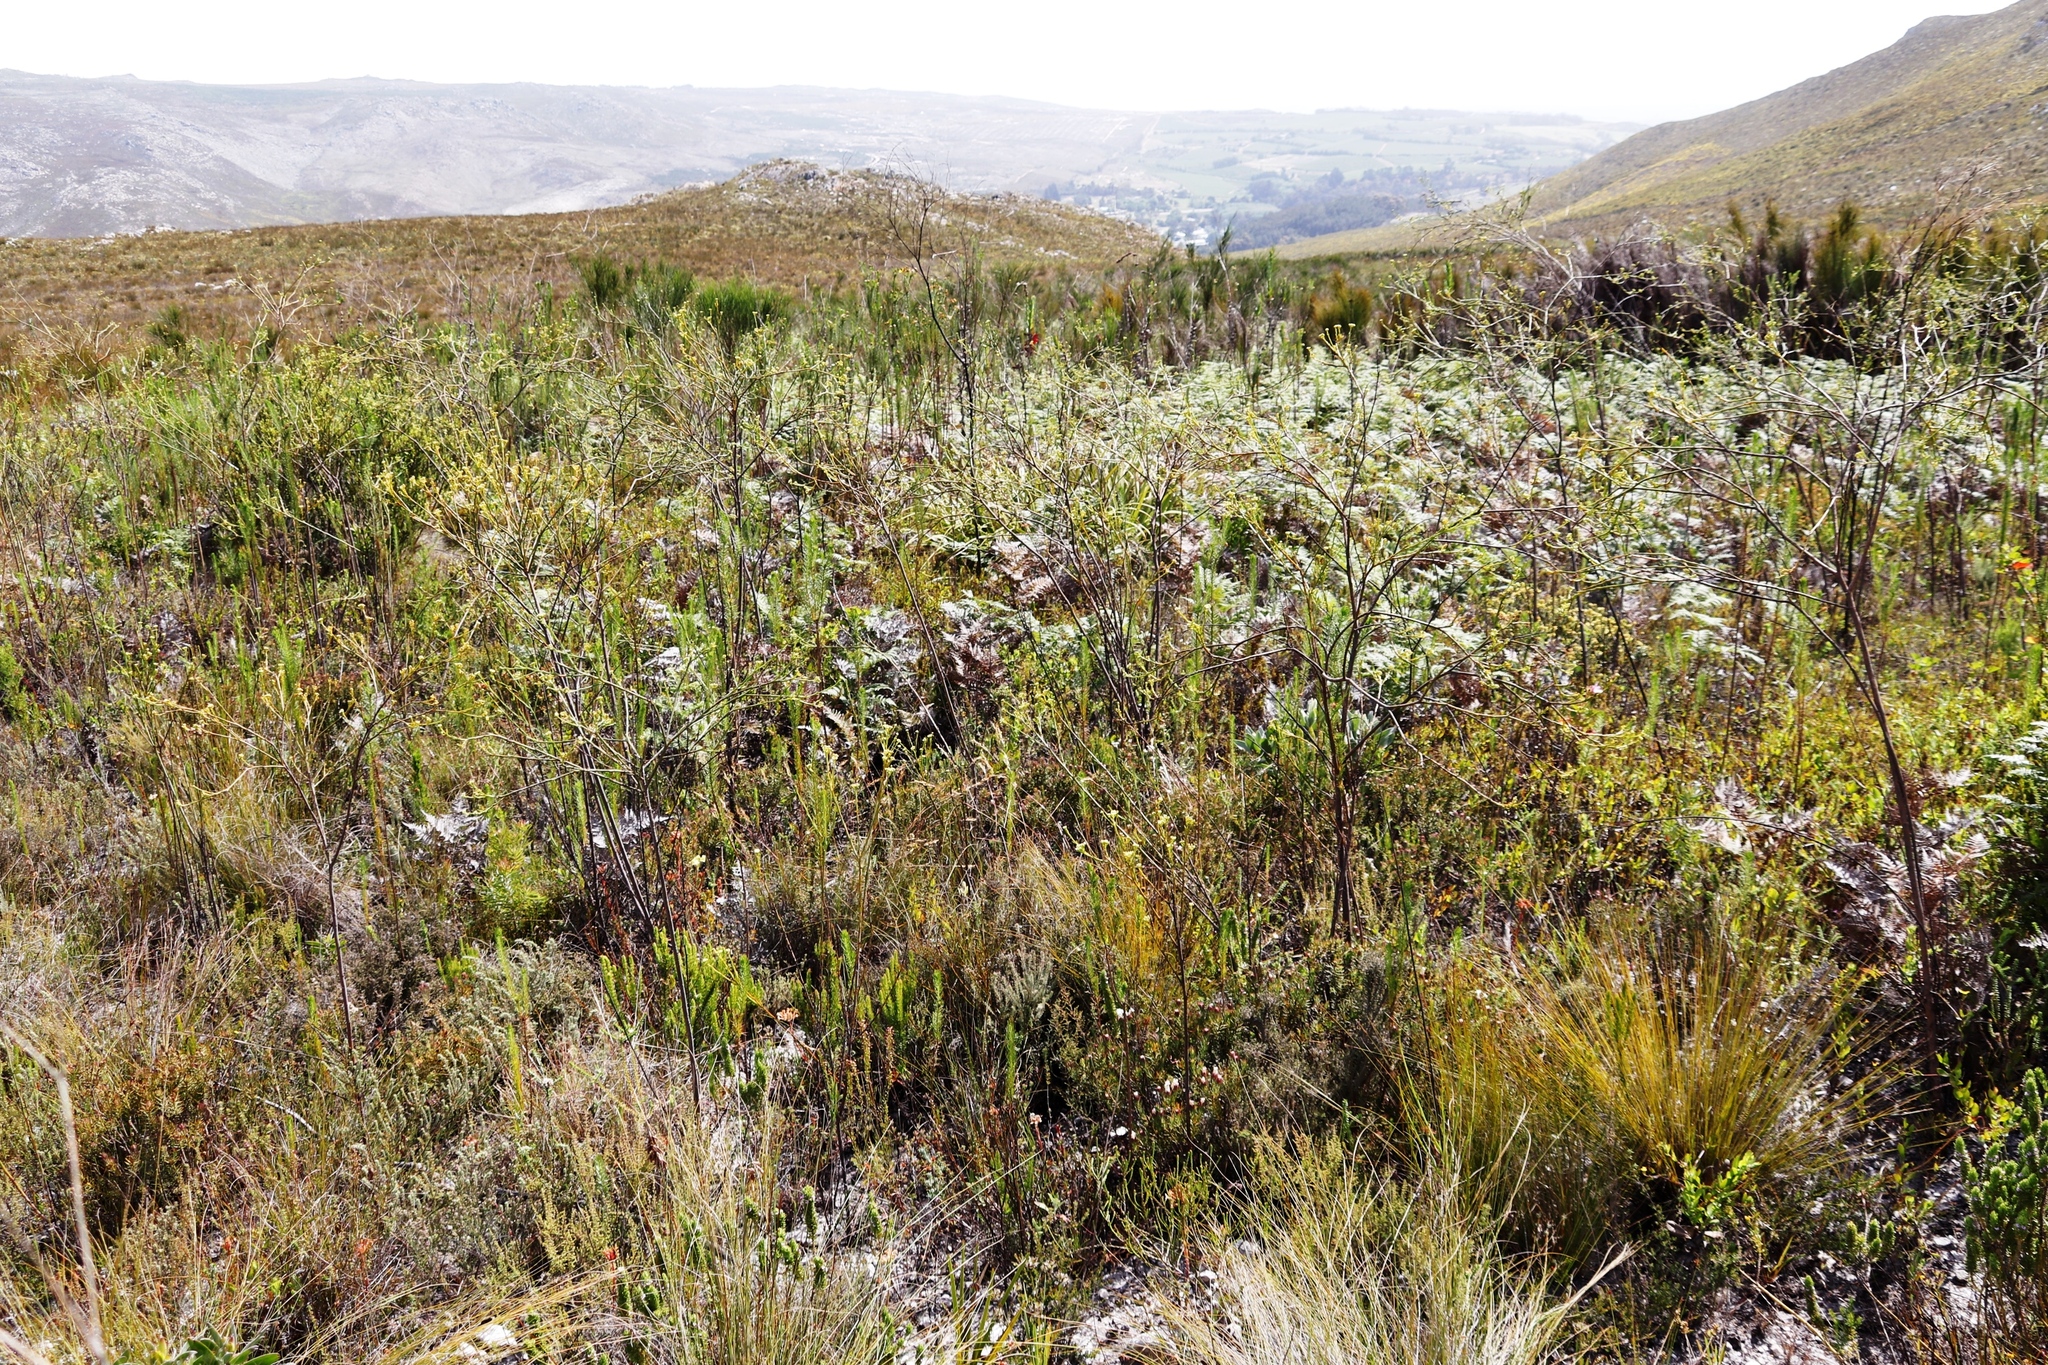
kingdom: Plantae
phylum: Tracheophyta
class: Polypodiopsida
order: Polypodiales
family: Dennstaedtiaceae
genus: Pteridium
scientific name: Pteridium aquilinum
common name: Bracken
